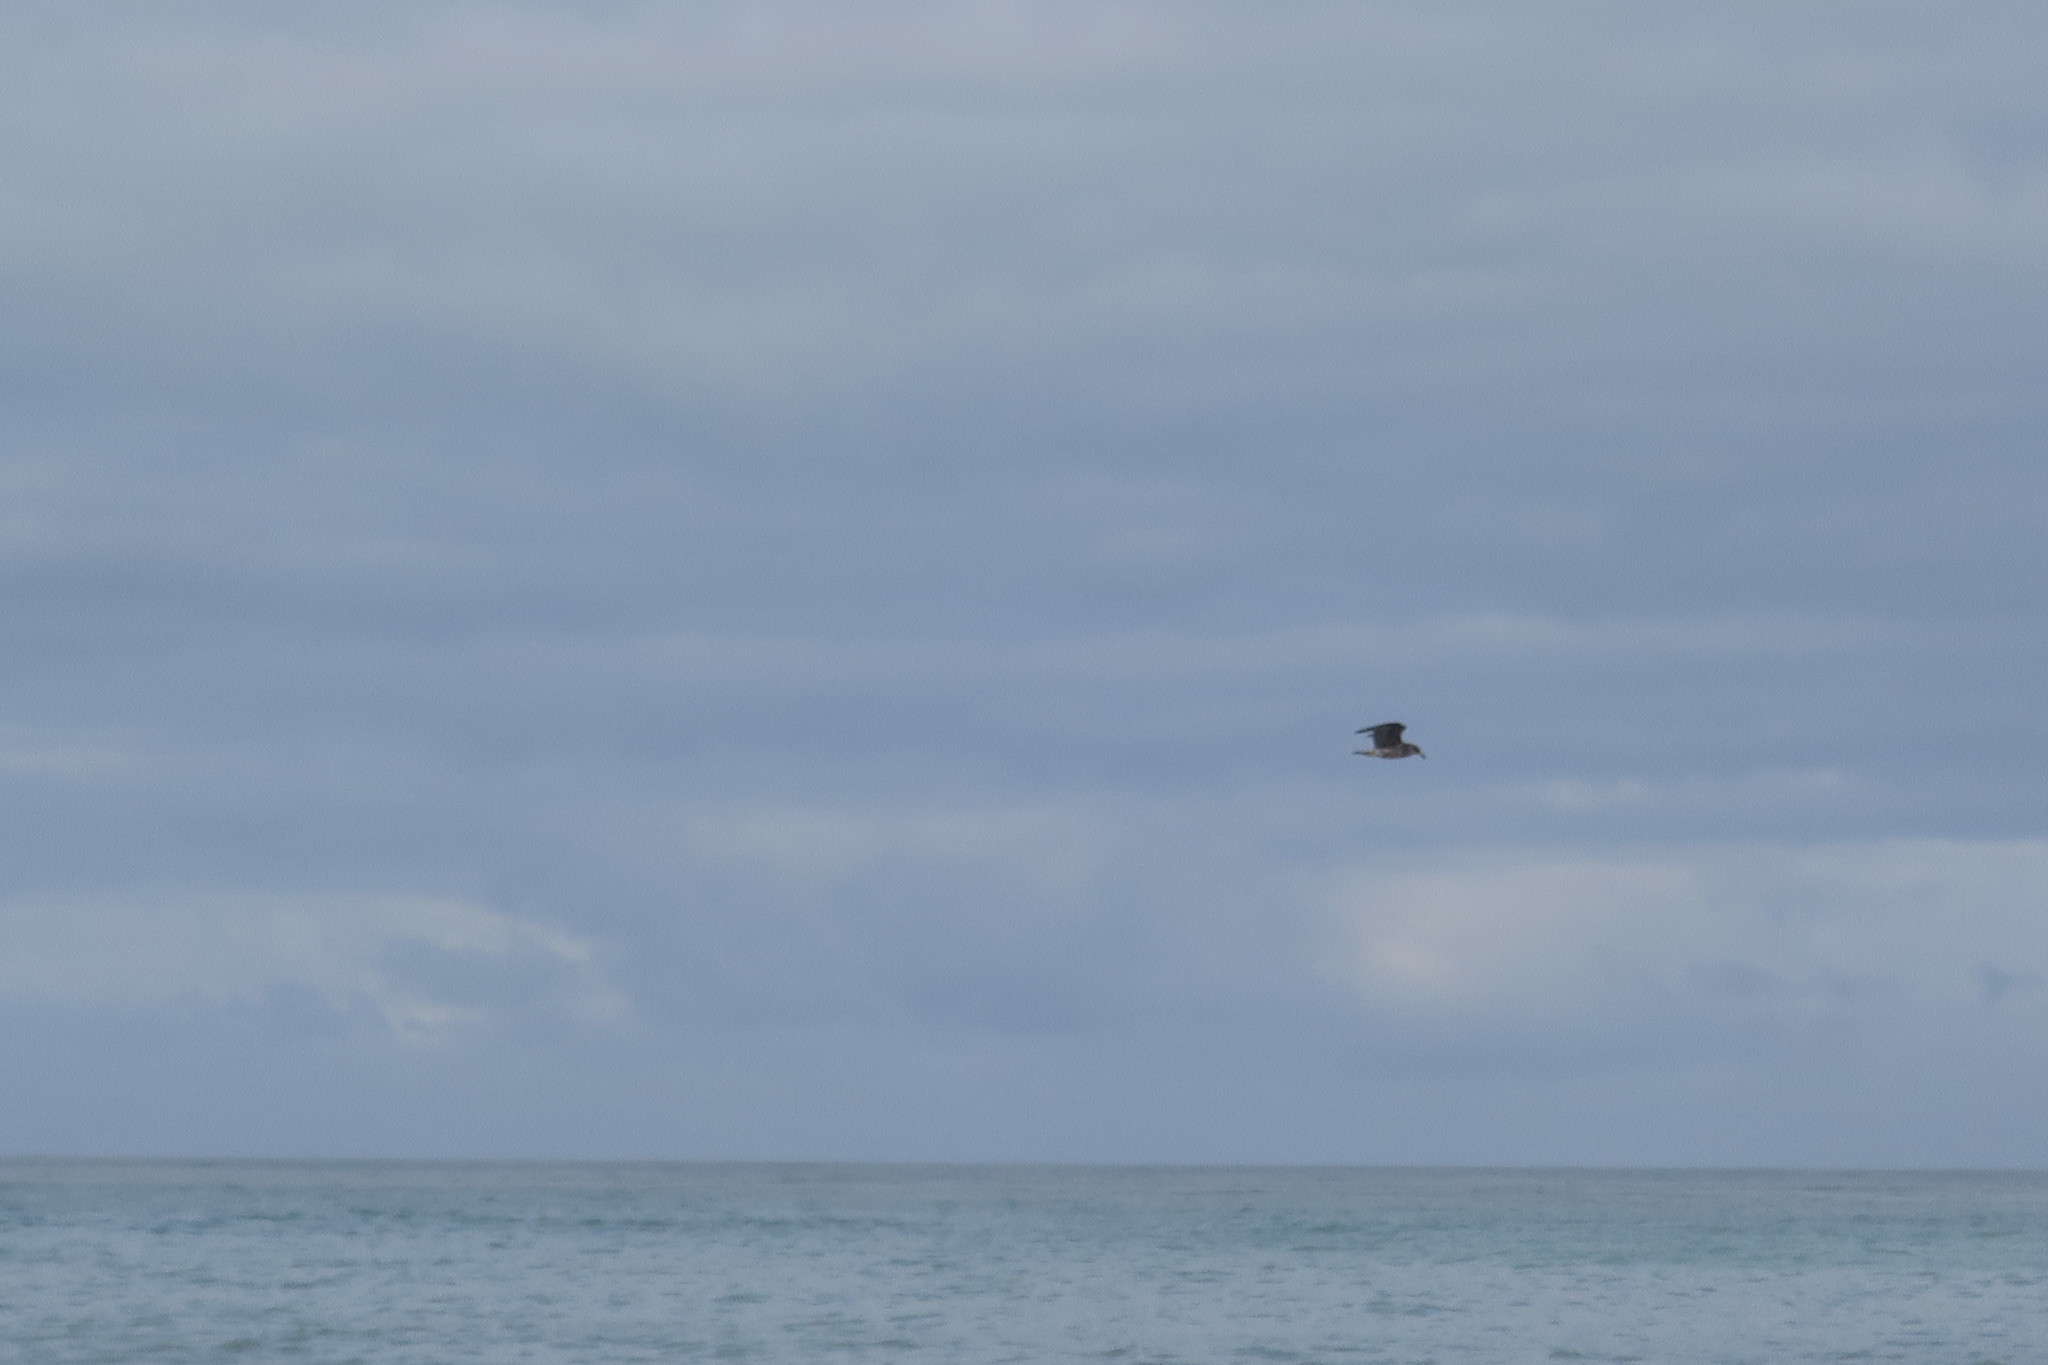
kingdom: Animalia
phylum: Chordata
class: Aves
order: Charadriiformes
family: Laridae
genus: Larus
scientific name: Larus dominicanus
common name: Kelp gull
